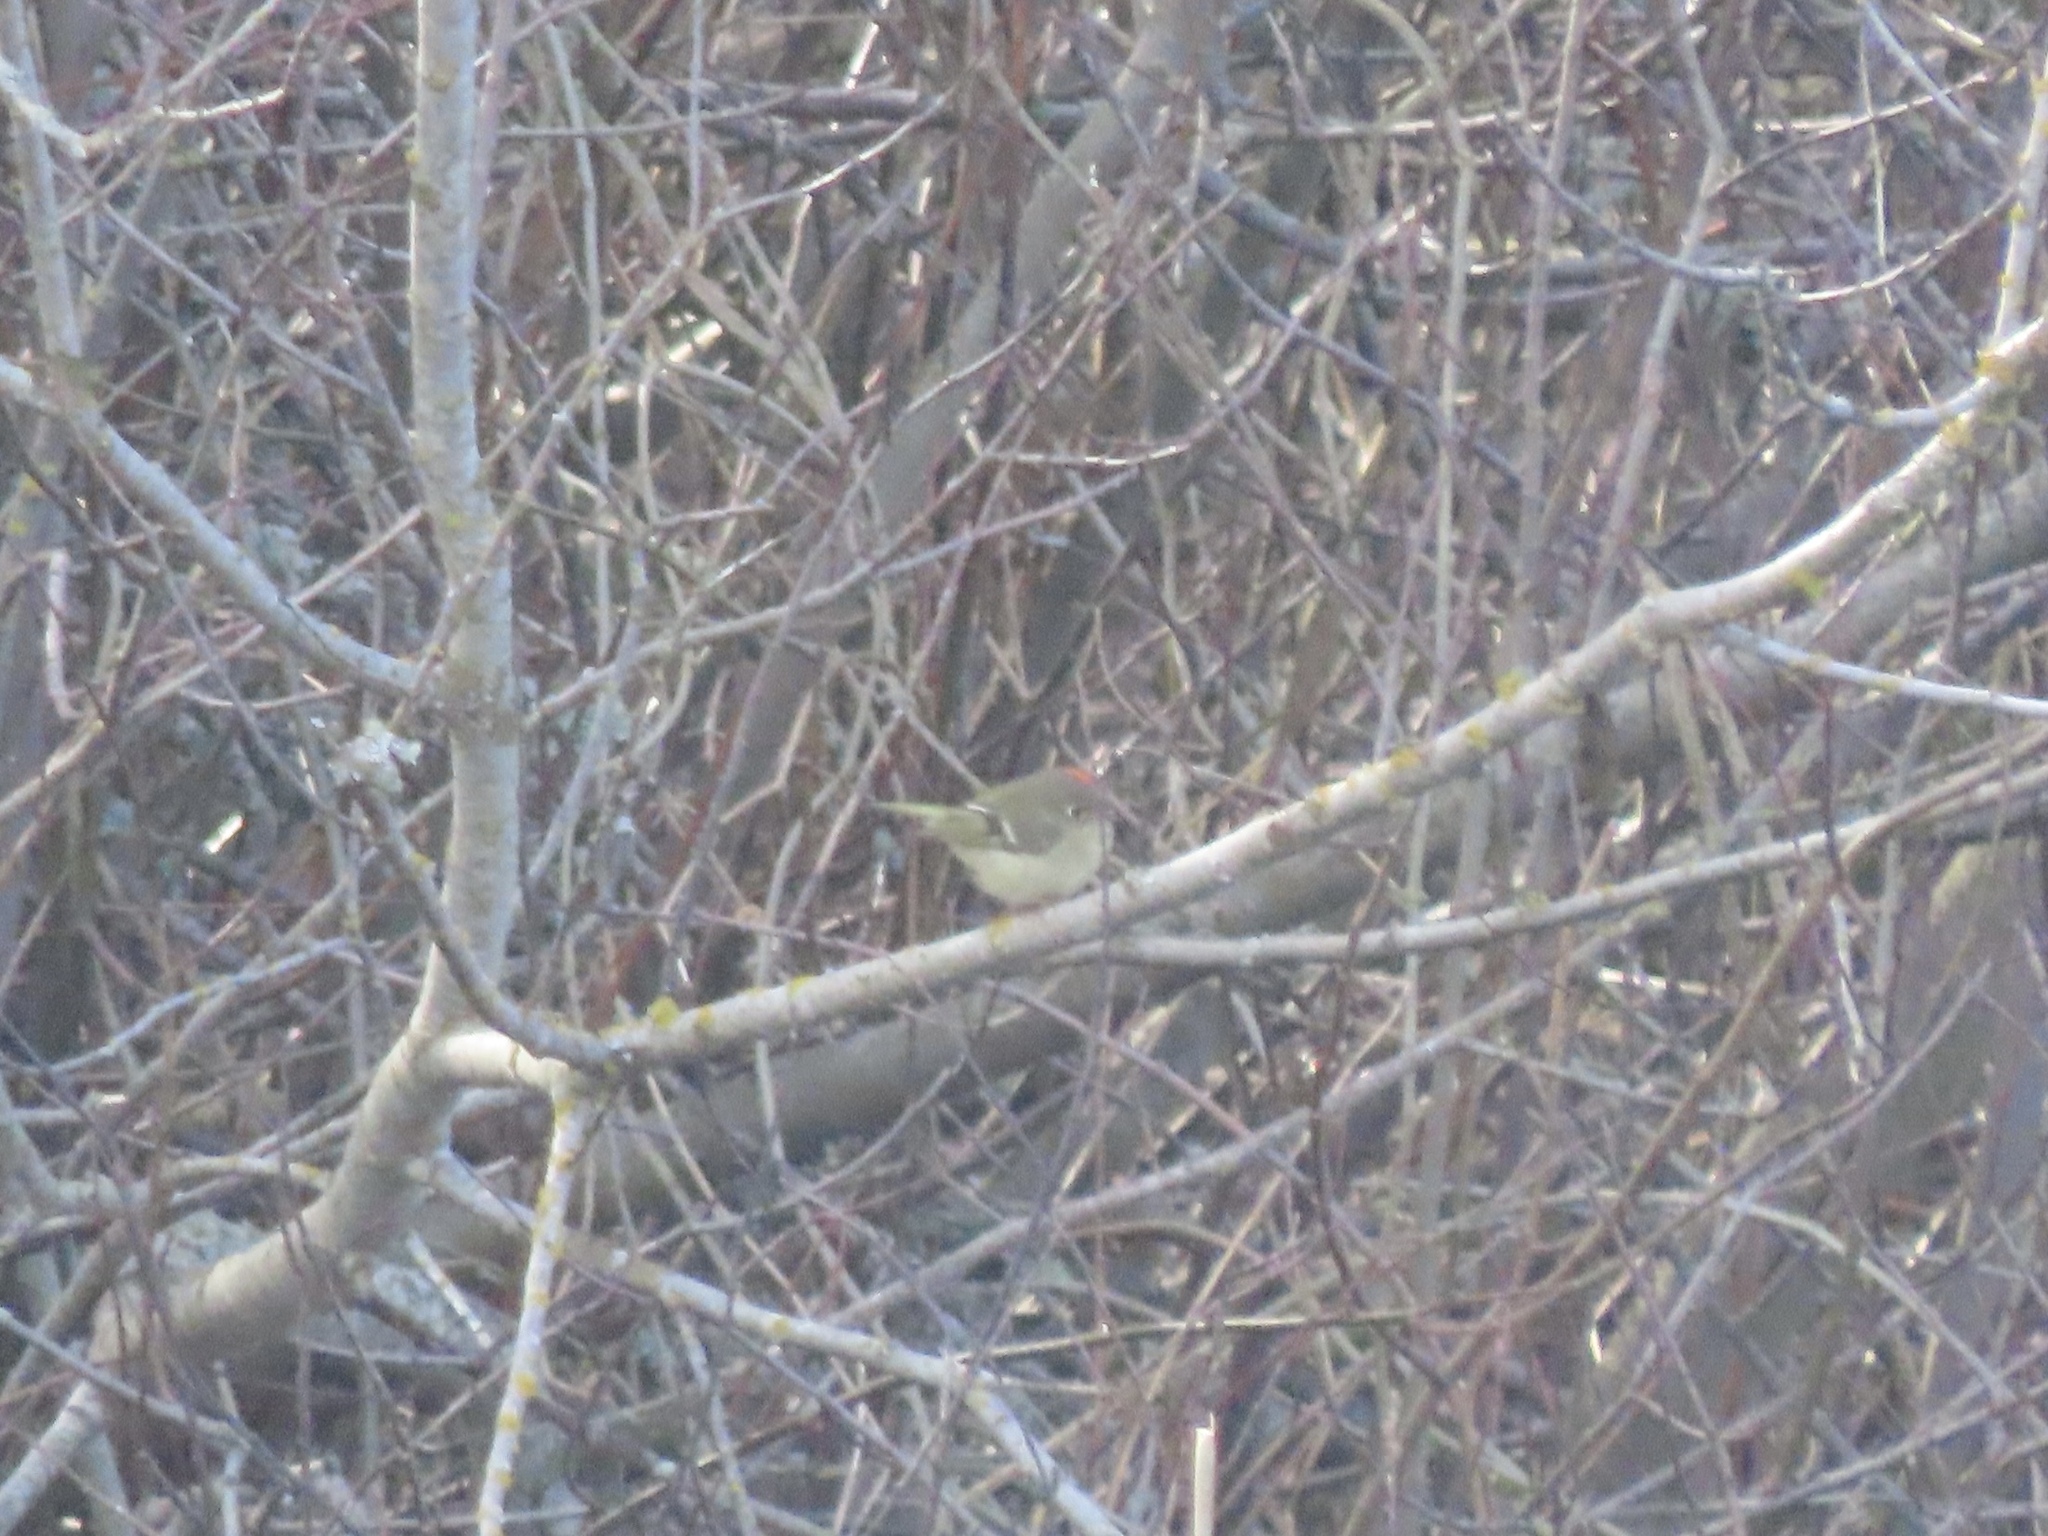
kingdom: Animalia
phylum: Chordata
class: Aves
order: Passeriformes
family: Regulidae
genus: Regulus
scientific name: Regulus calendula
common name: Ruby-crowned kinglet
